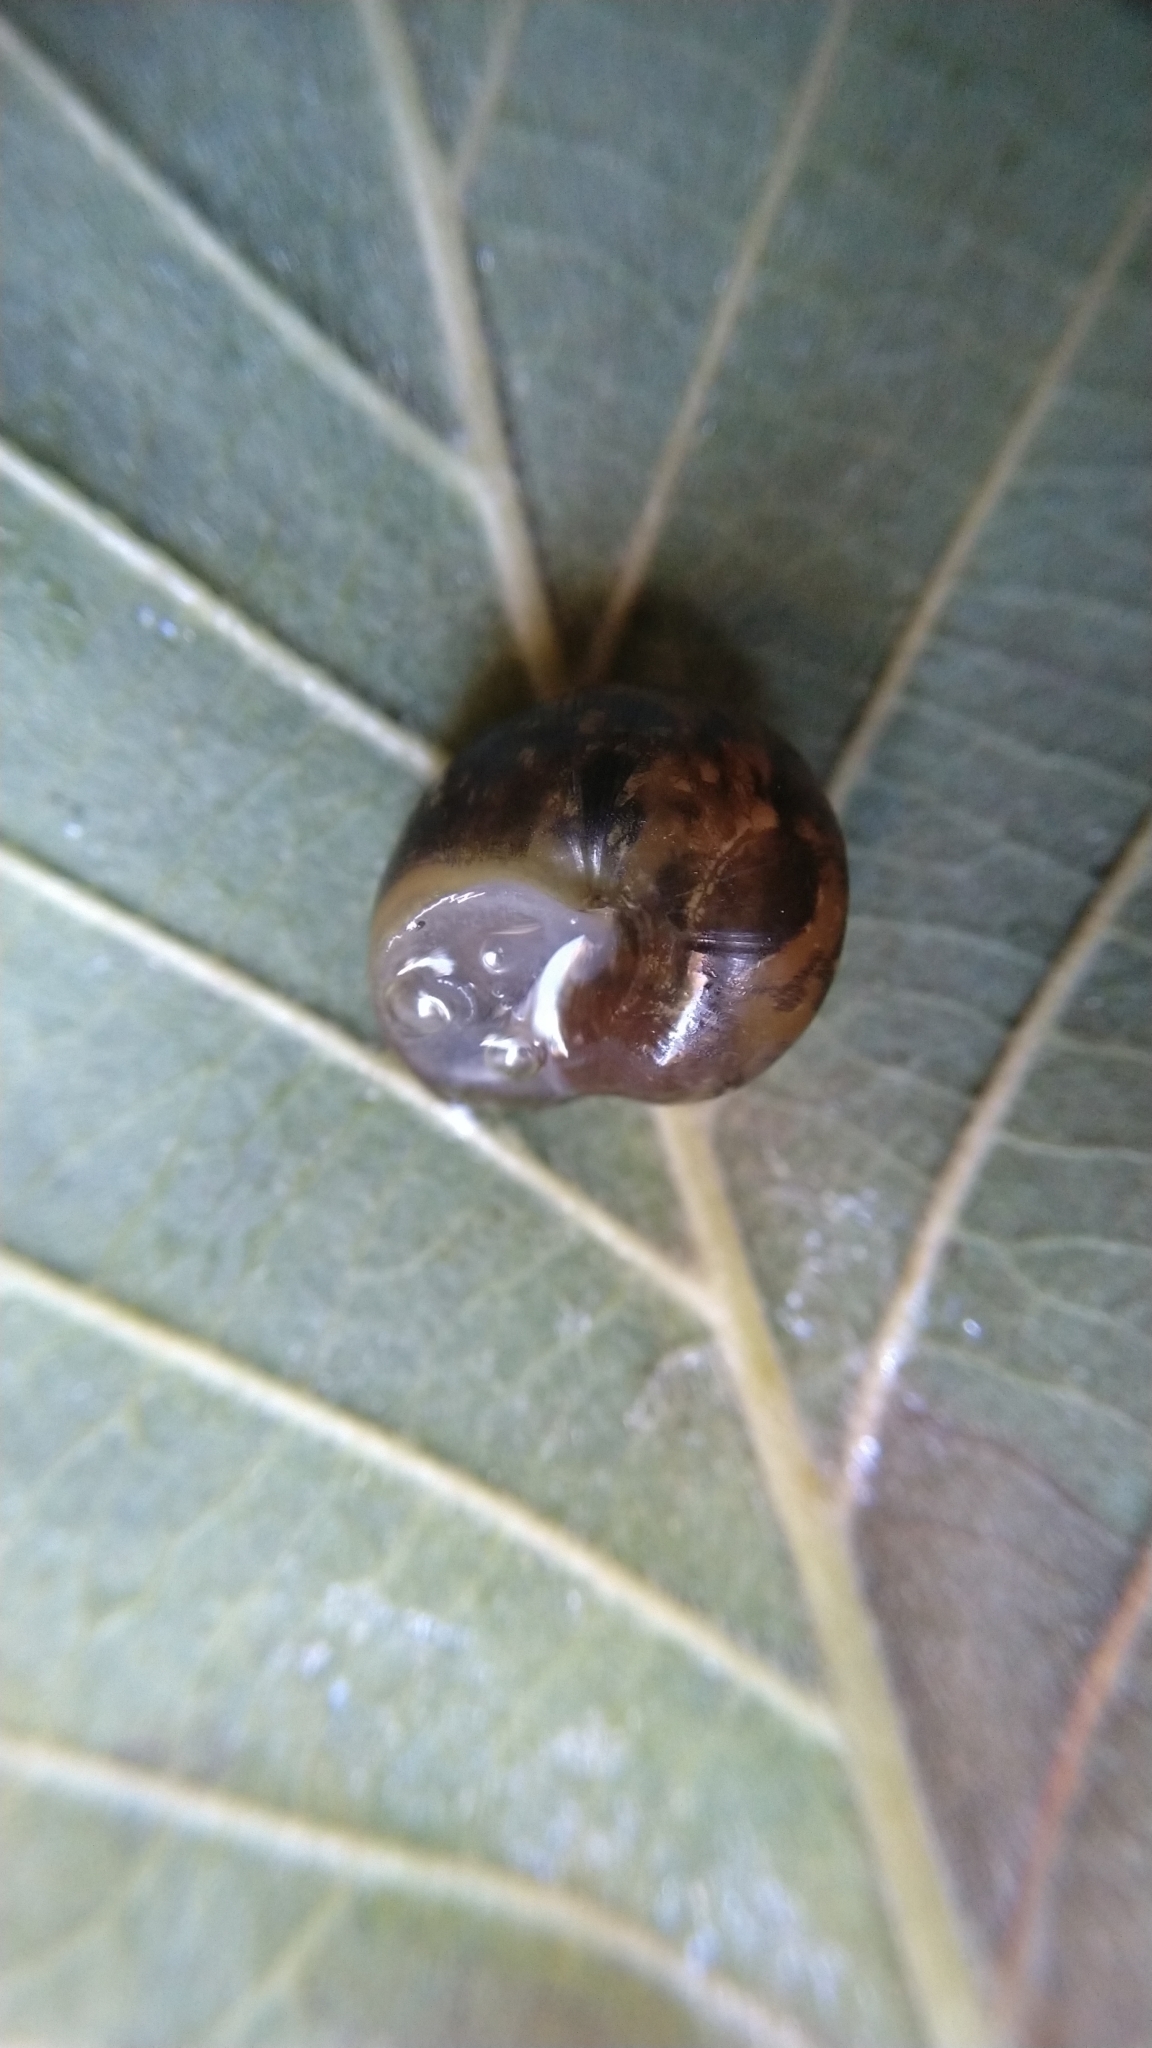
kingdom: Animalia
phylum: Mollusca
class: Gastropoda
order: Stylommatophora
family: Helicidae
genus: Arianta
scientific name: Arianta arbustorum
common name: Copse snail
